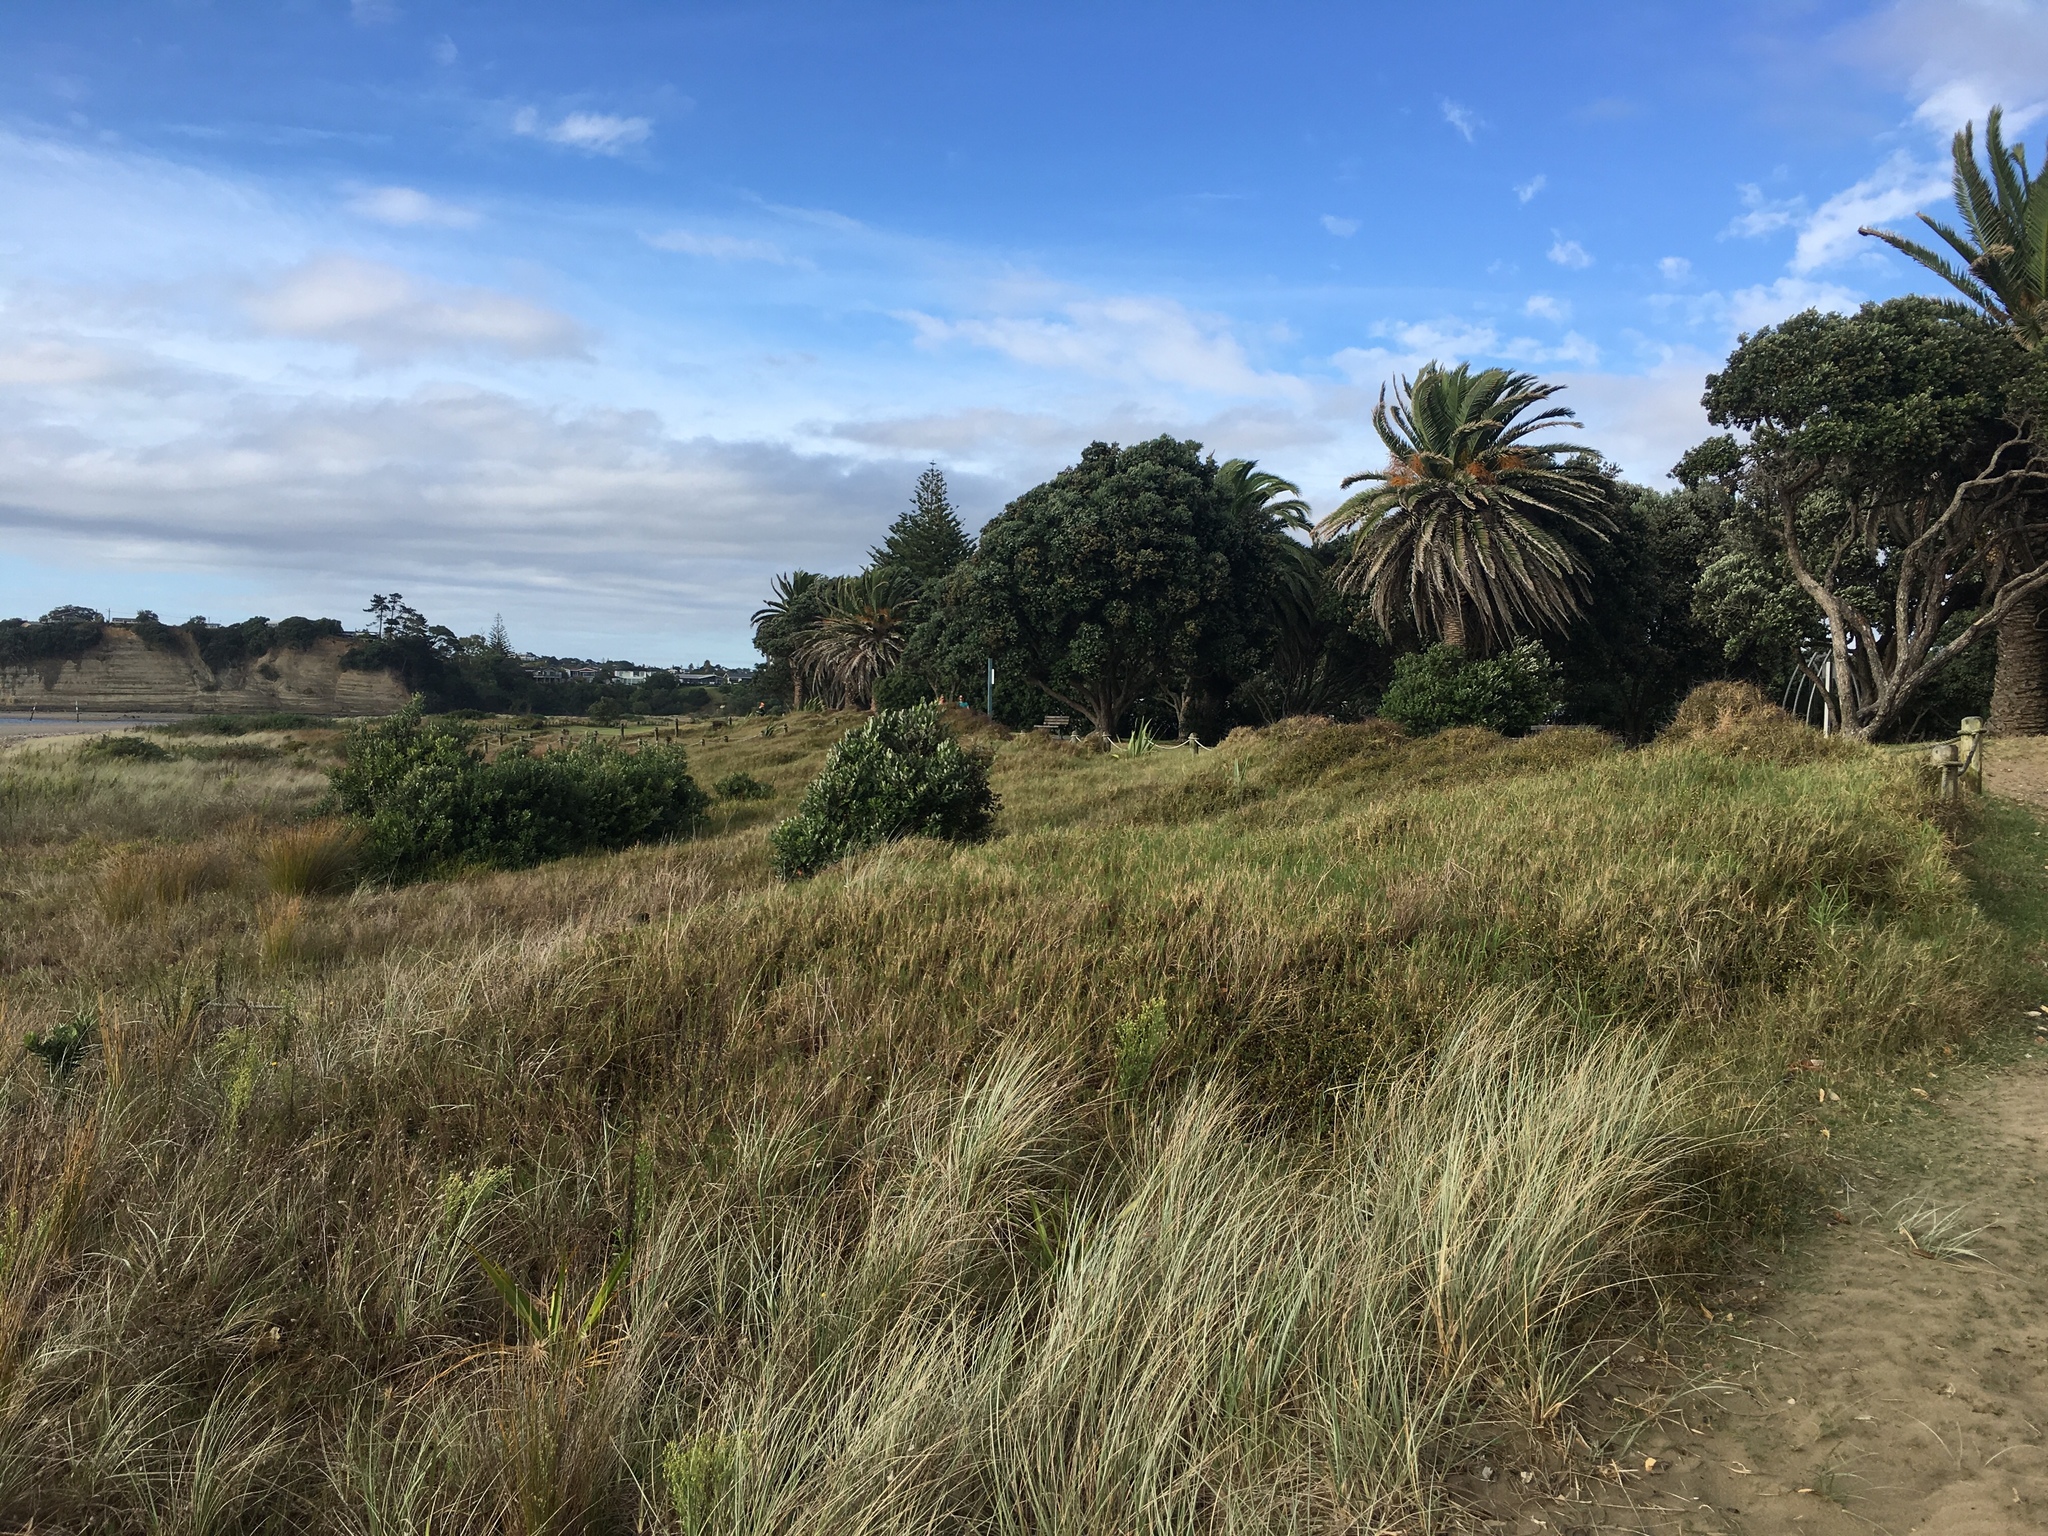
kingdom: Plantae
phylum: Tracheophyta
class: Liliopsida
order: Poales
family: Poaceae
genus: Cenchrus
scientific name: Cenchrus clandestinus
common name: Kikuyugrass
